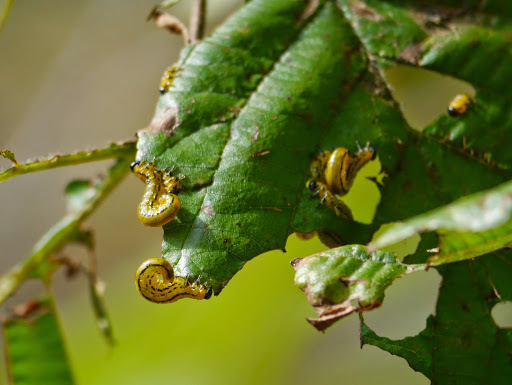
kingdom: Animalia
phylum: Arthropoda
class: Insecta
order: Hymenoptera
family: Tenthredinidae
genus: Hemichroa
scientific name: Hemichroa crocea
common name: Striped alder sawfly
